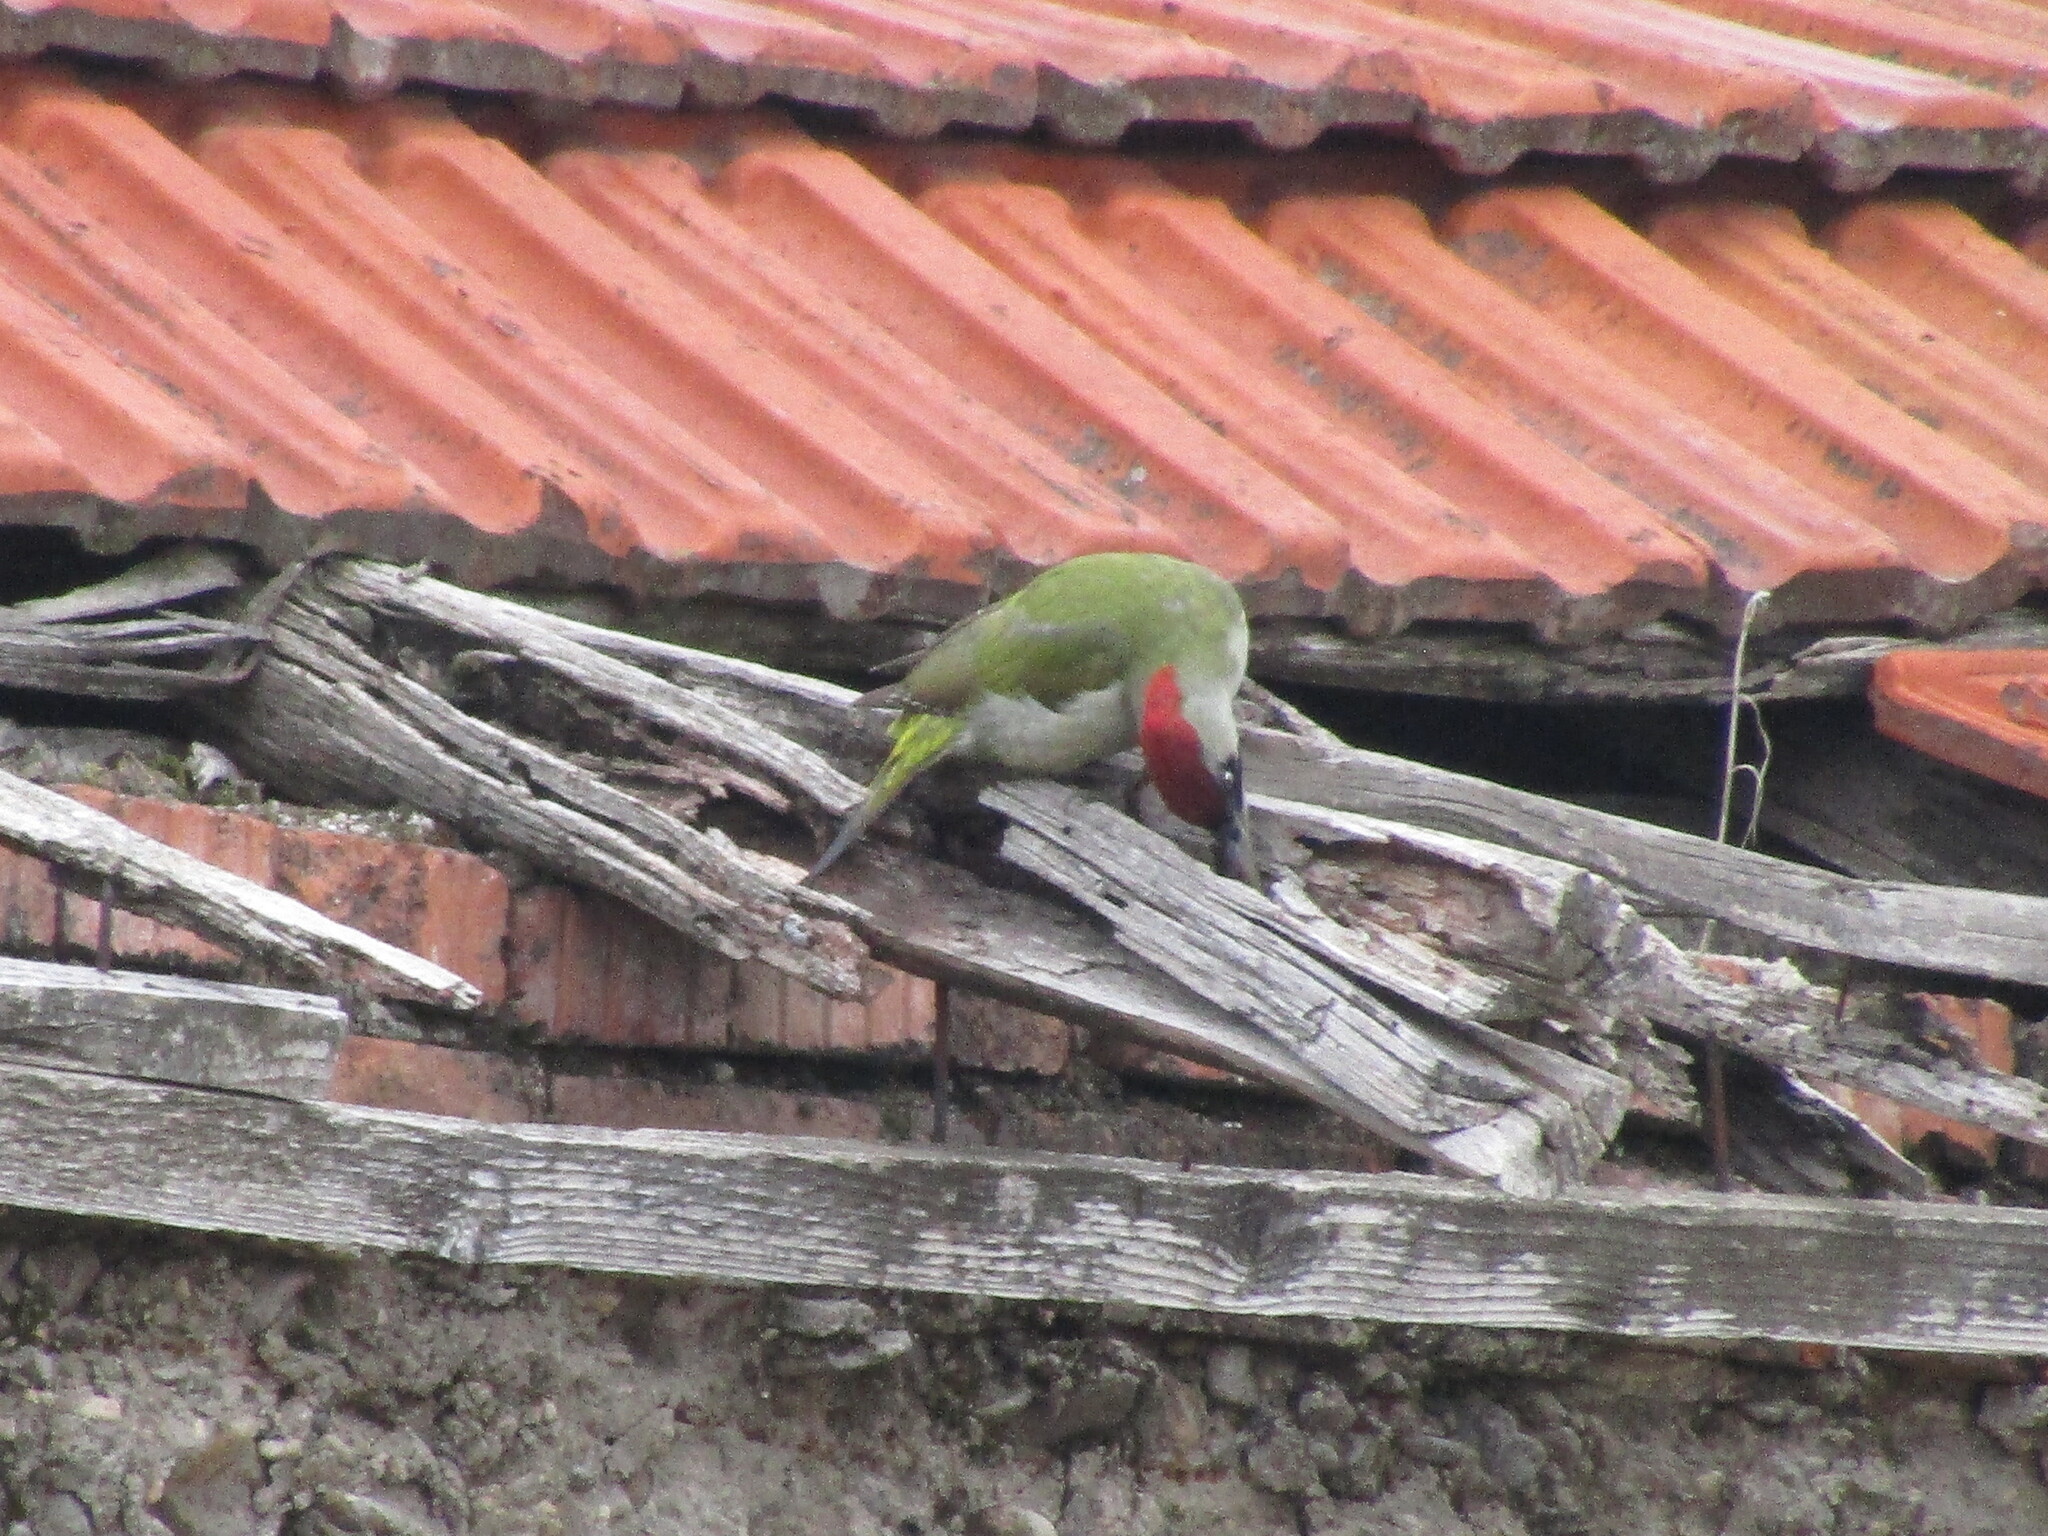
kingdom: Animalia
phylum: Chordata
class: Aves
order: Piciformes
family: Picidae
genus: Picus
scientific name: Picus viridis
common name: European green woodpecker
